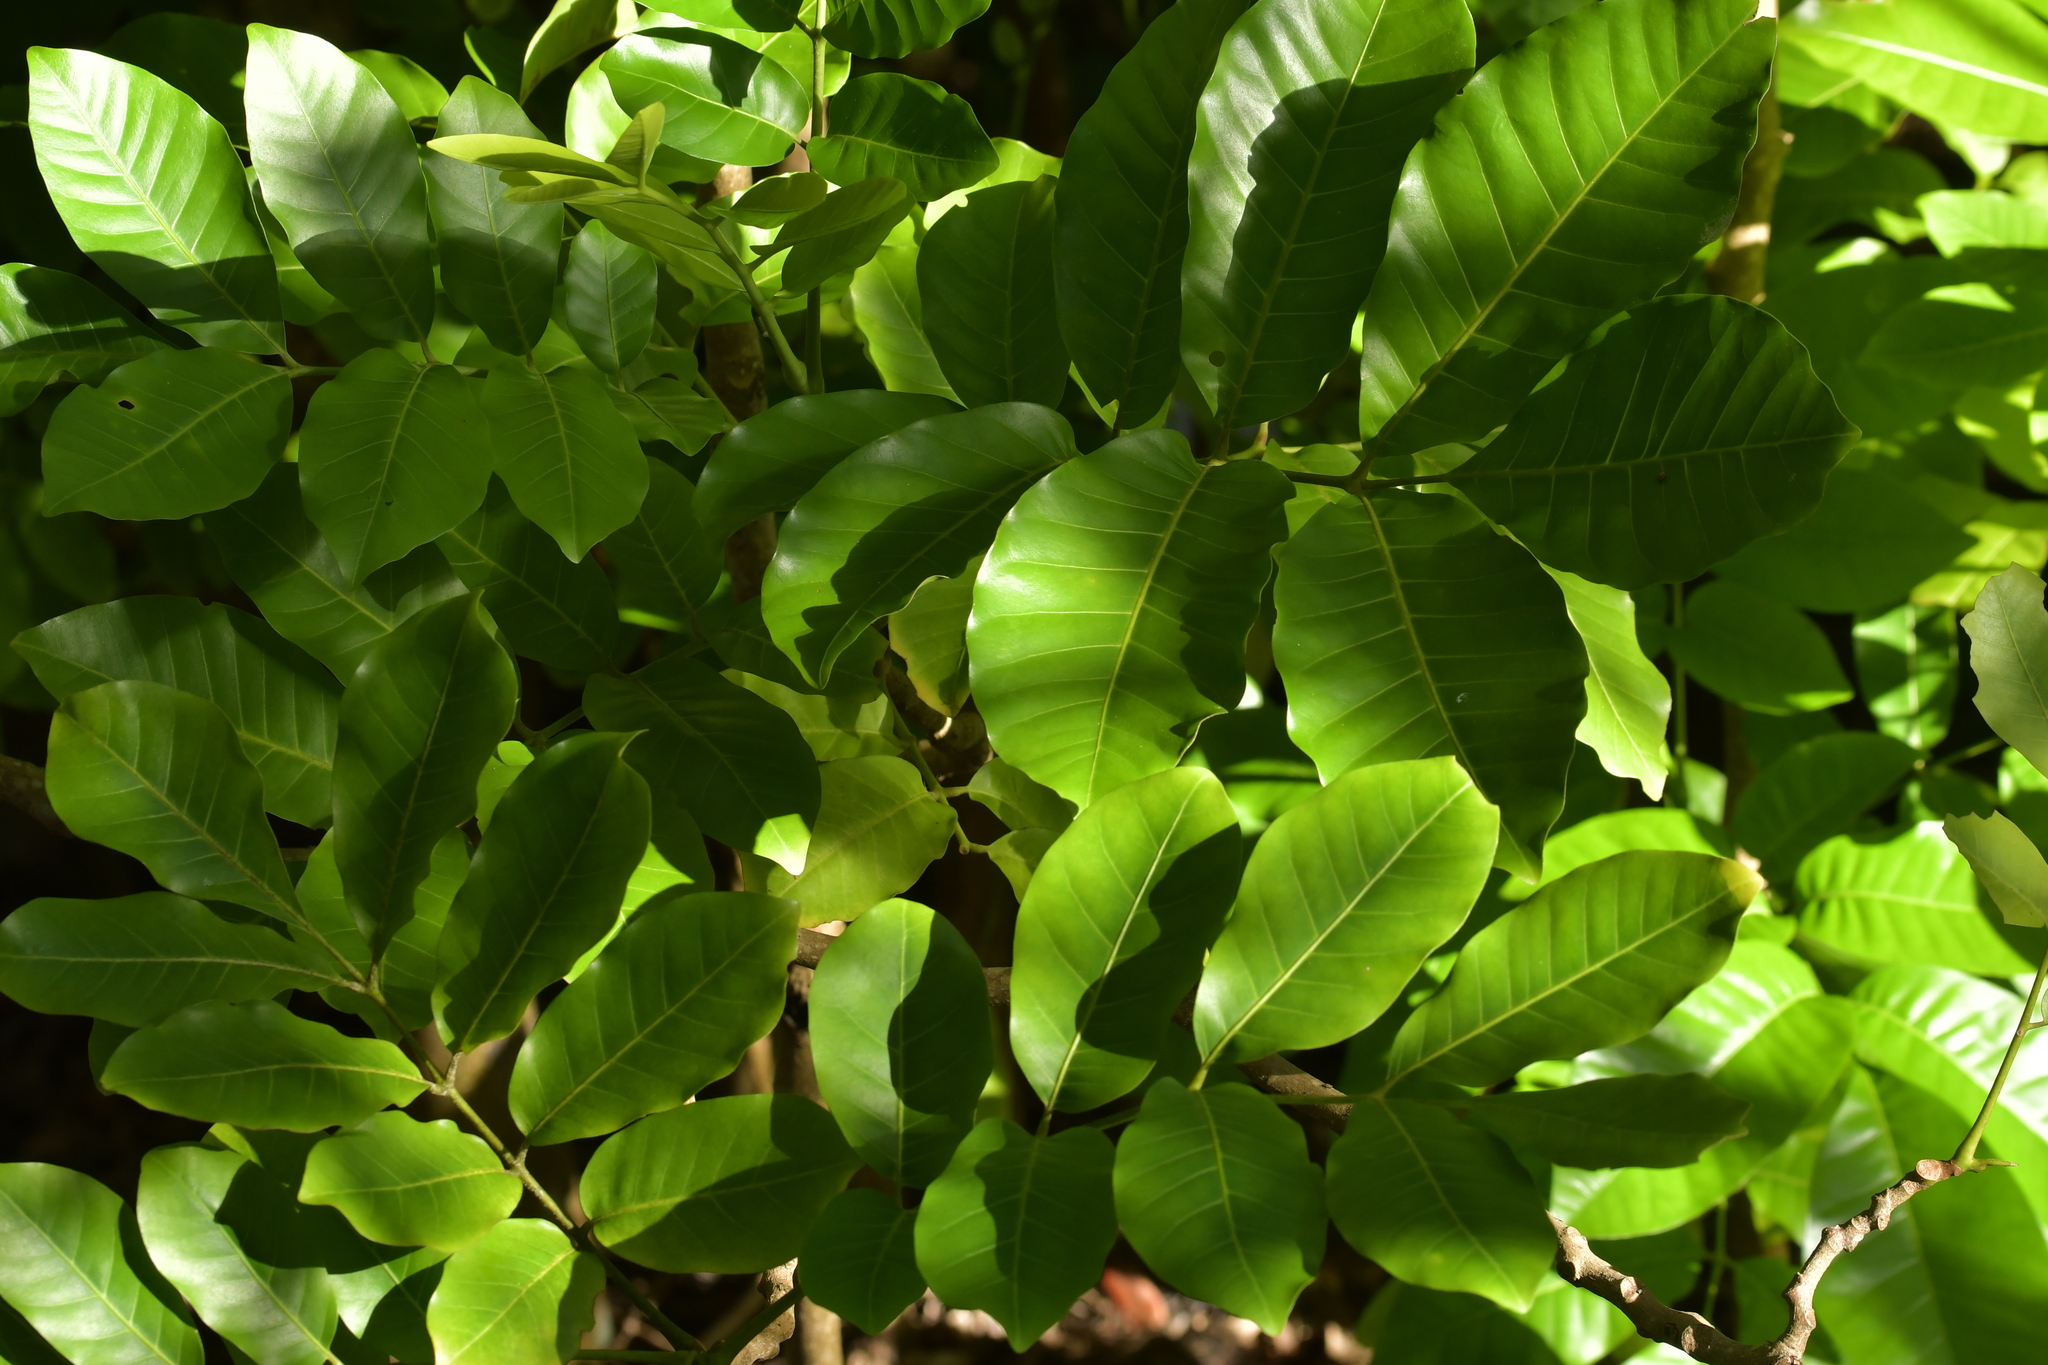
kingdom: Plantae
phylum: Tracheophyta
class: Magnoliopsida
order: Sapindales
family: Meliaceae
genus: Didymocheton
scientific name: Didymocheton spectabilis
